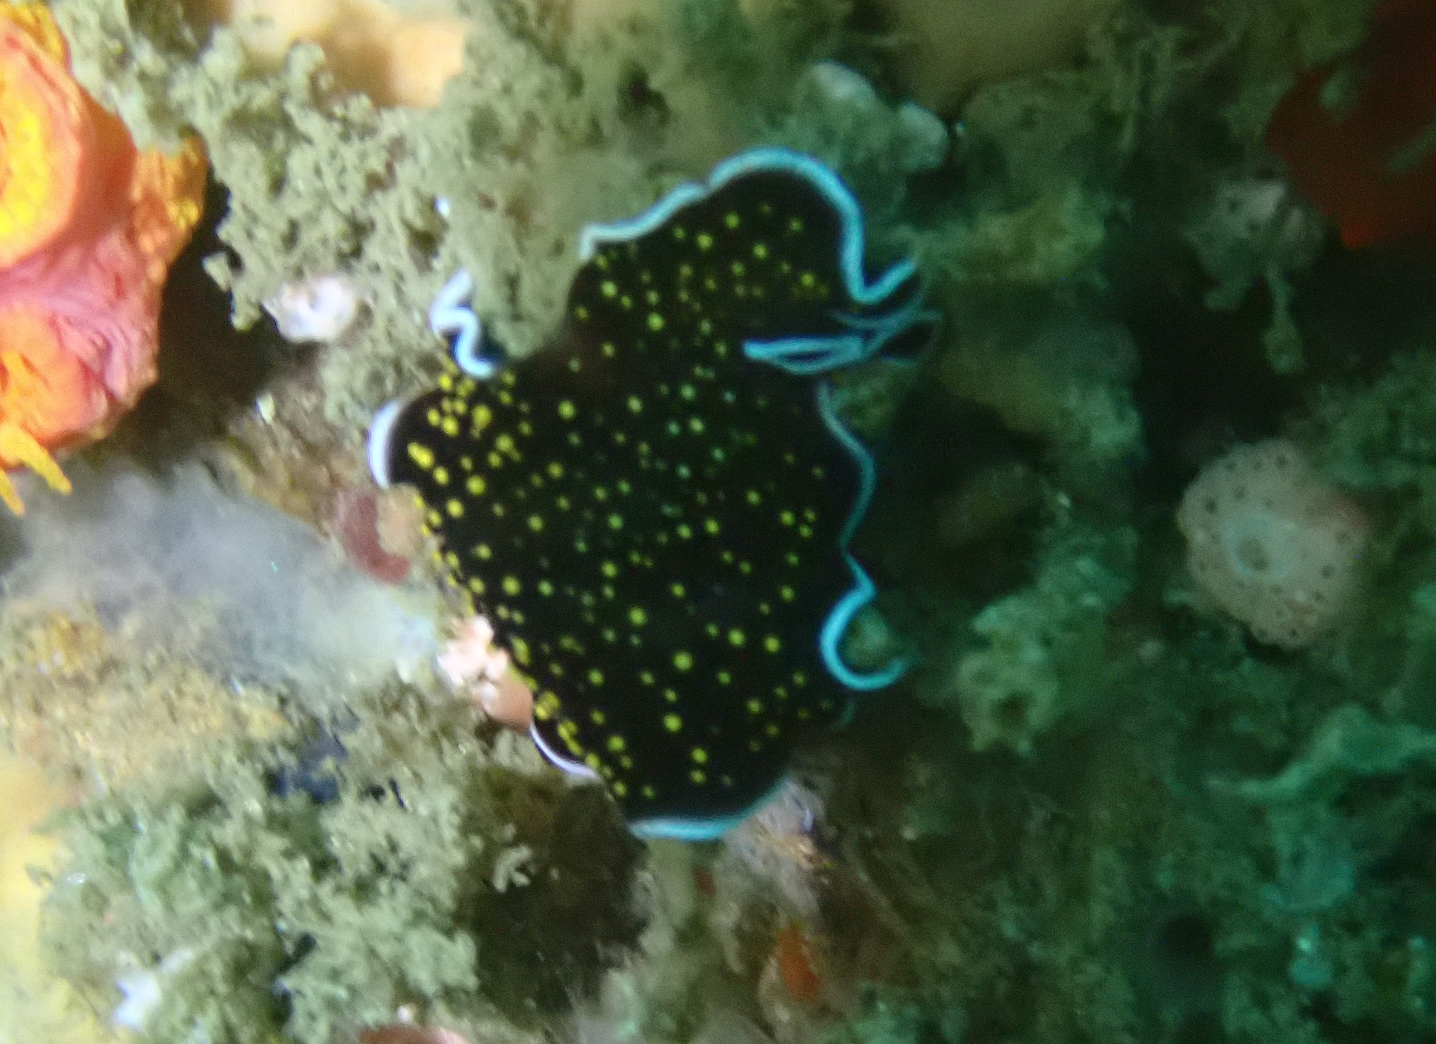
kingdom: Animalia
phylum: Platyhelminthes
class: Turbellaria
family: Pseudocerotidae
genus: Thysanozoon
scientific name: Thysanozoon nigropapillosum
